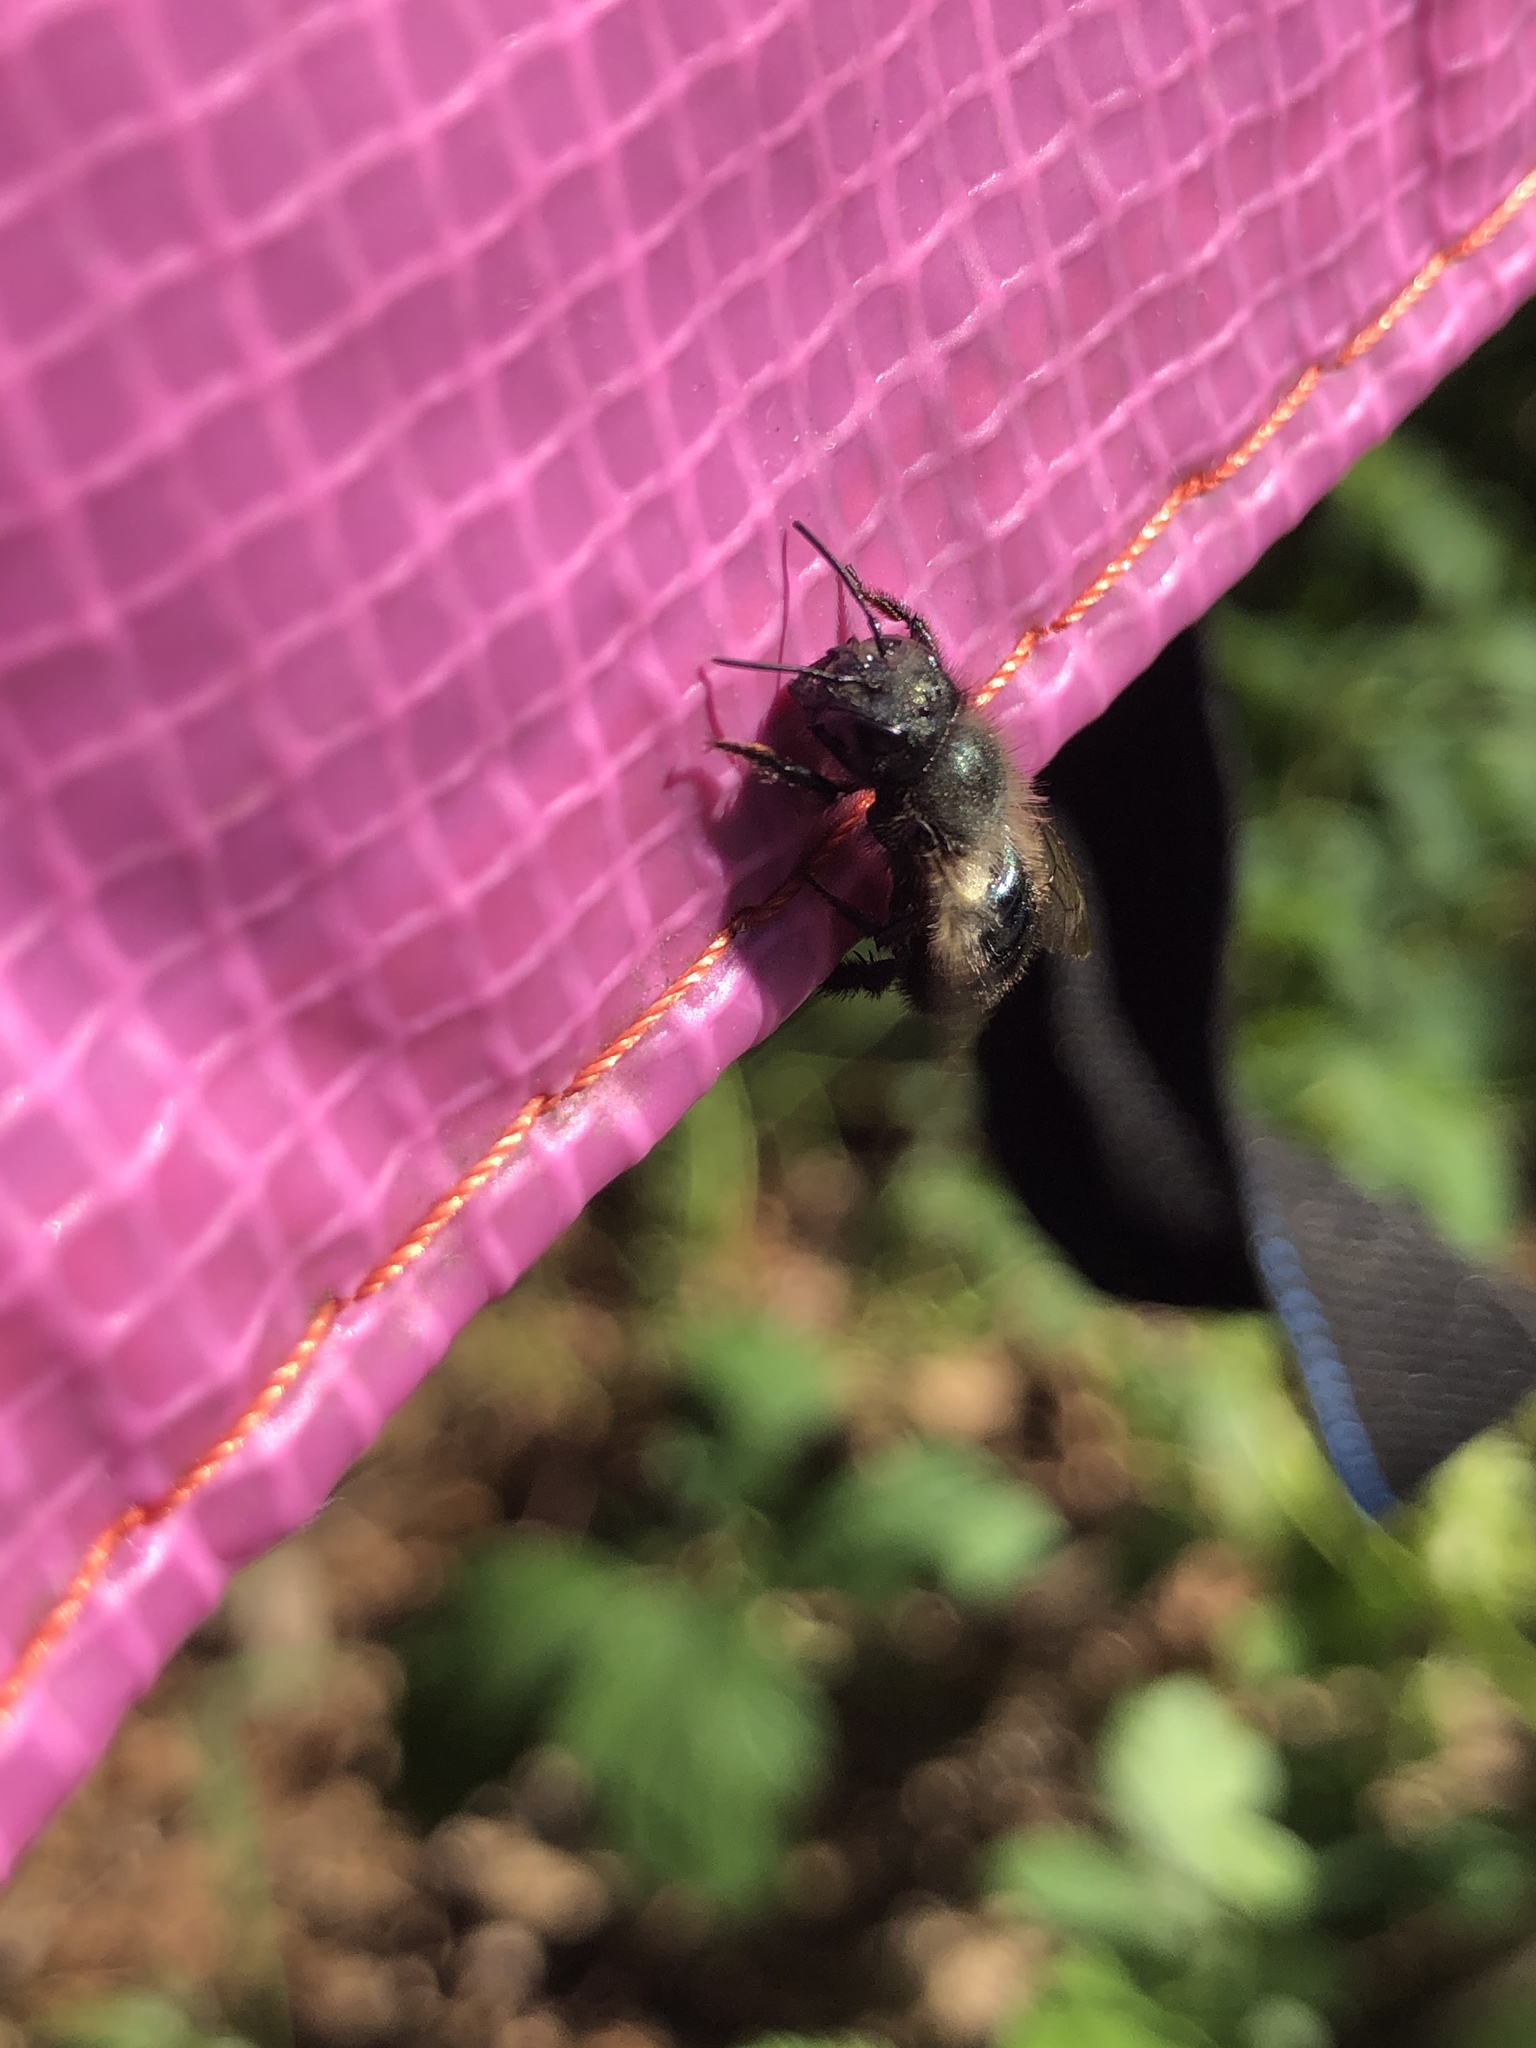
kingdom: Animalia
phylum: Arthropoda
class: Insecta
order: Hymenoptera
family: Megachilidae
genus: Osmia
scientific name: Osmia lignaria
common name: Blue orchard bee
